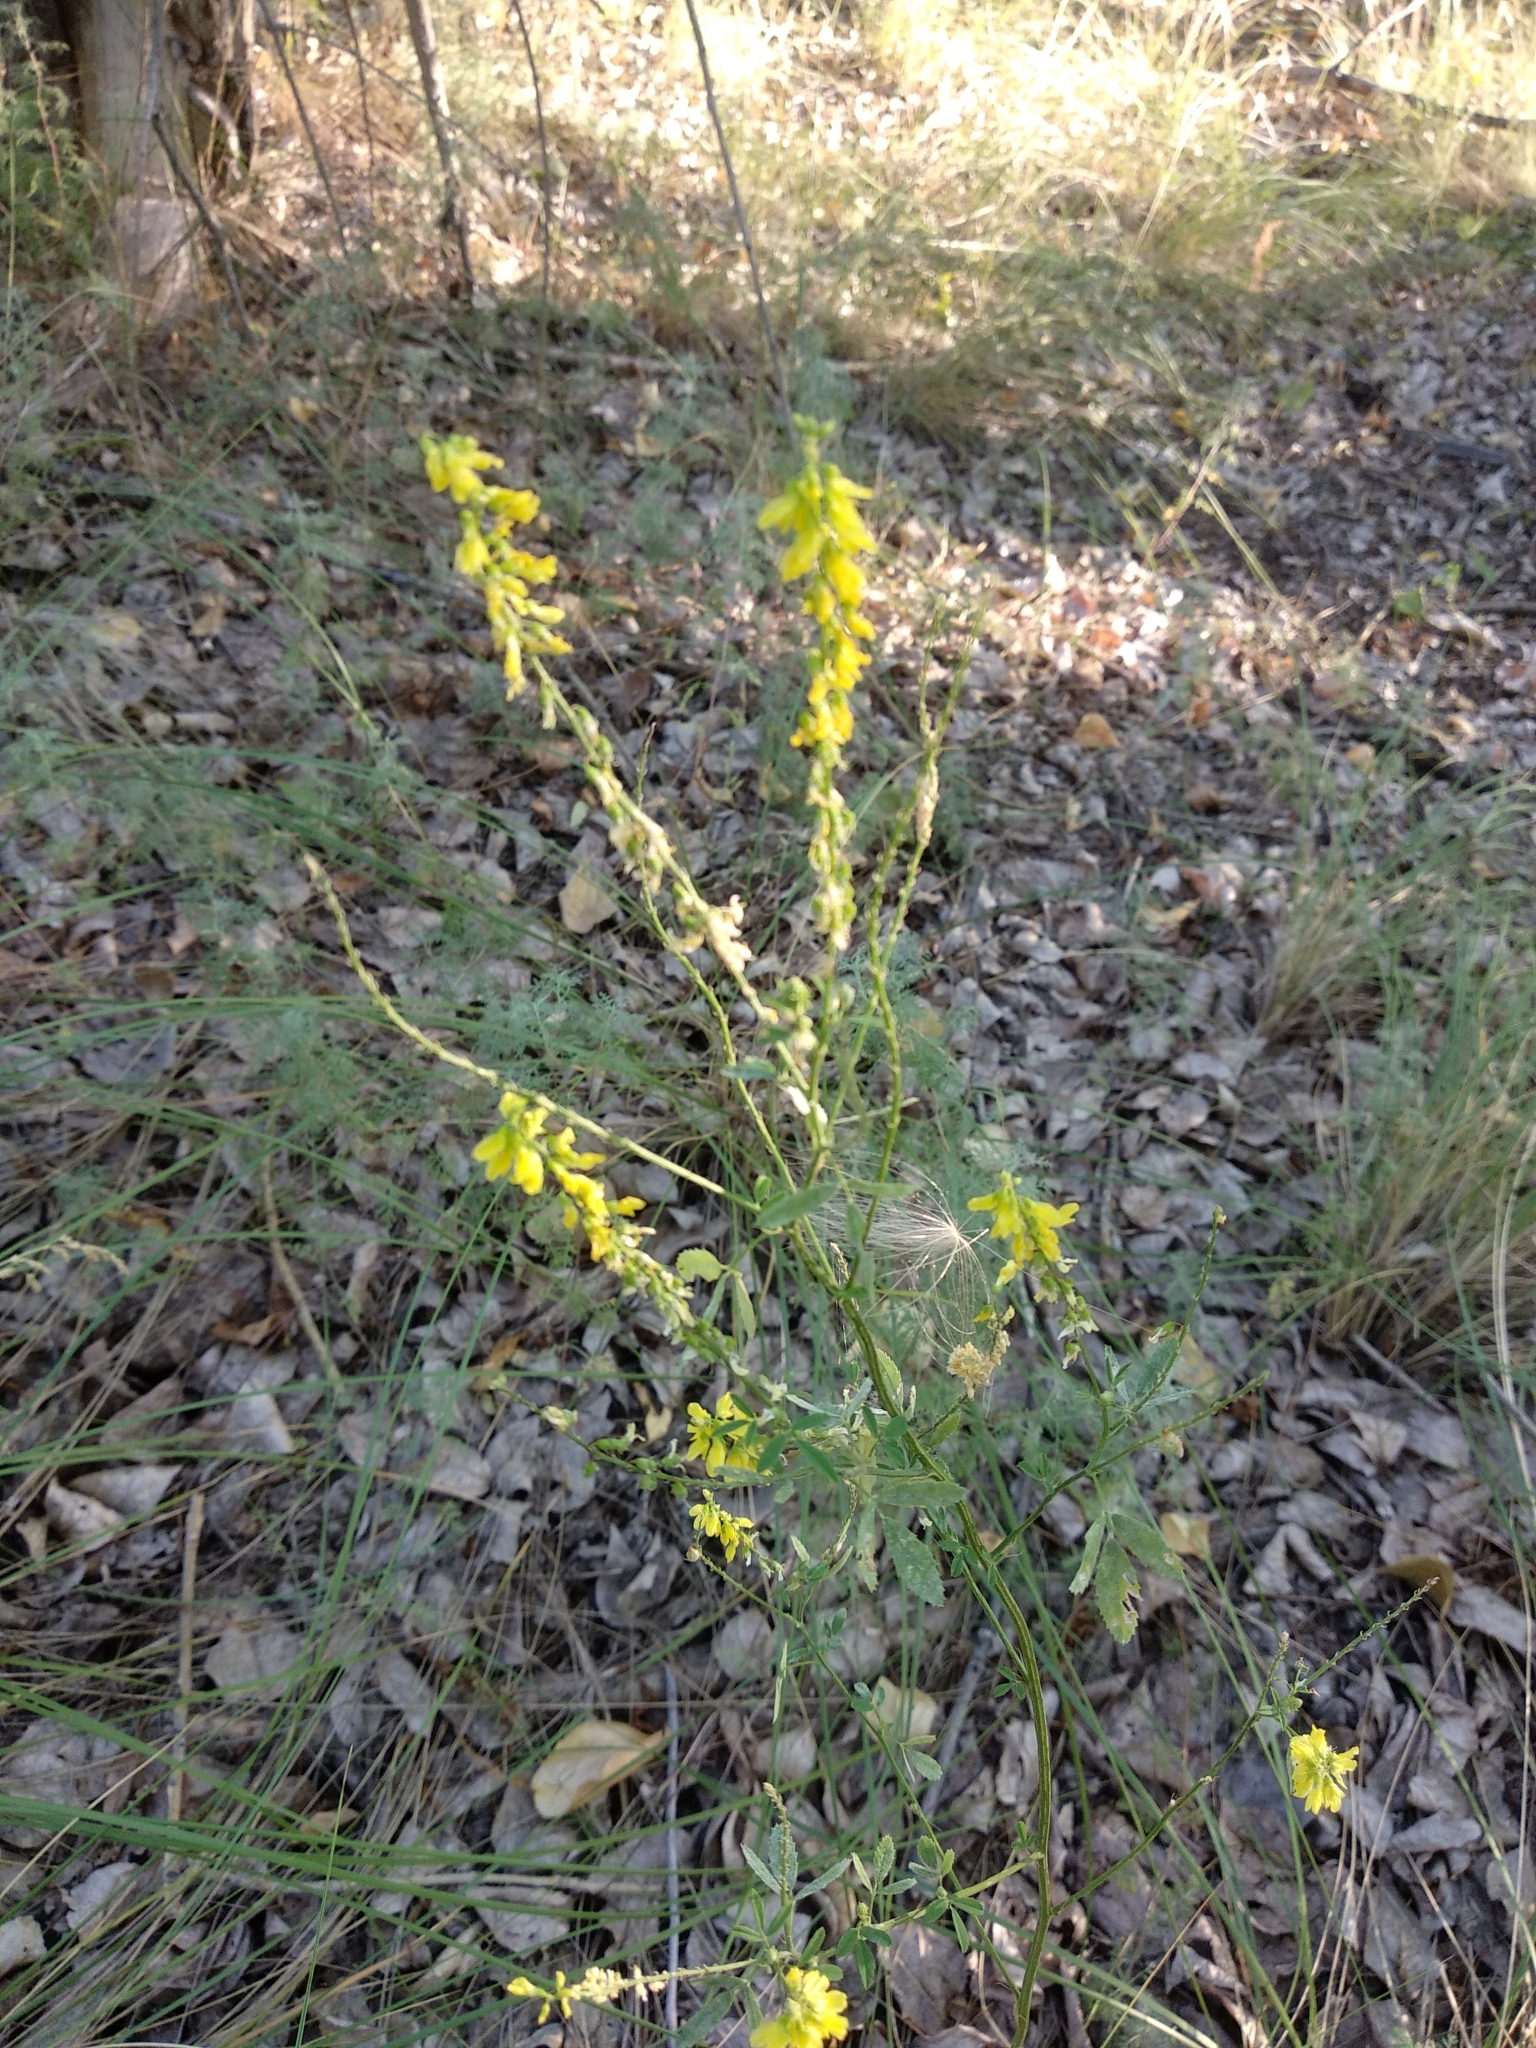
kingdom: Plantae
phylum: Tracheophyta
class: Magnoliopsida
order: Fabales
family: Fabaceae
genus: Melilotus
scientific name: Melilotus officinalis
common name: Sweetclover
